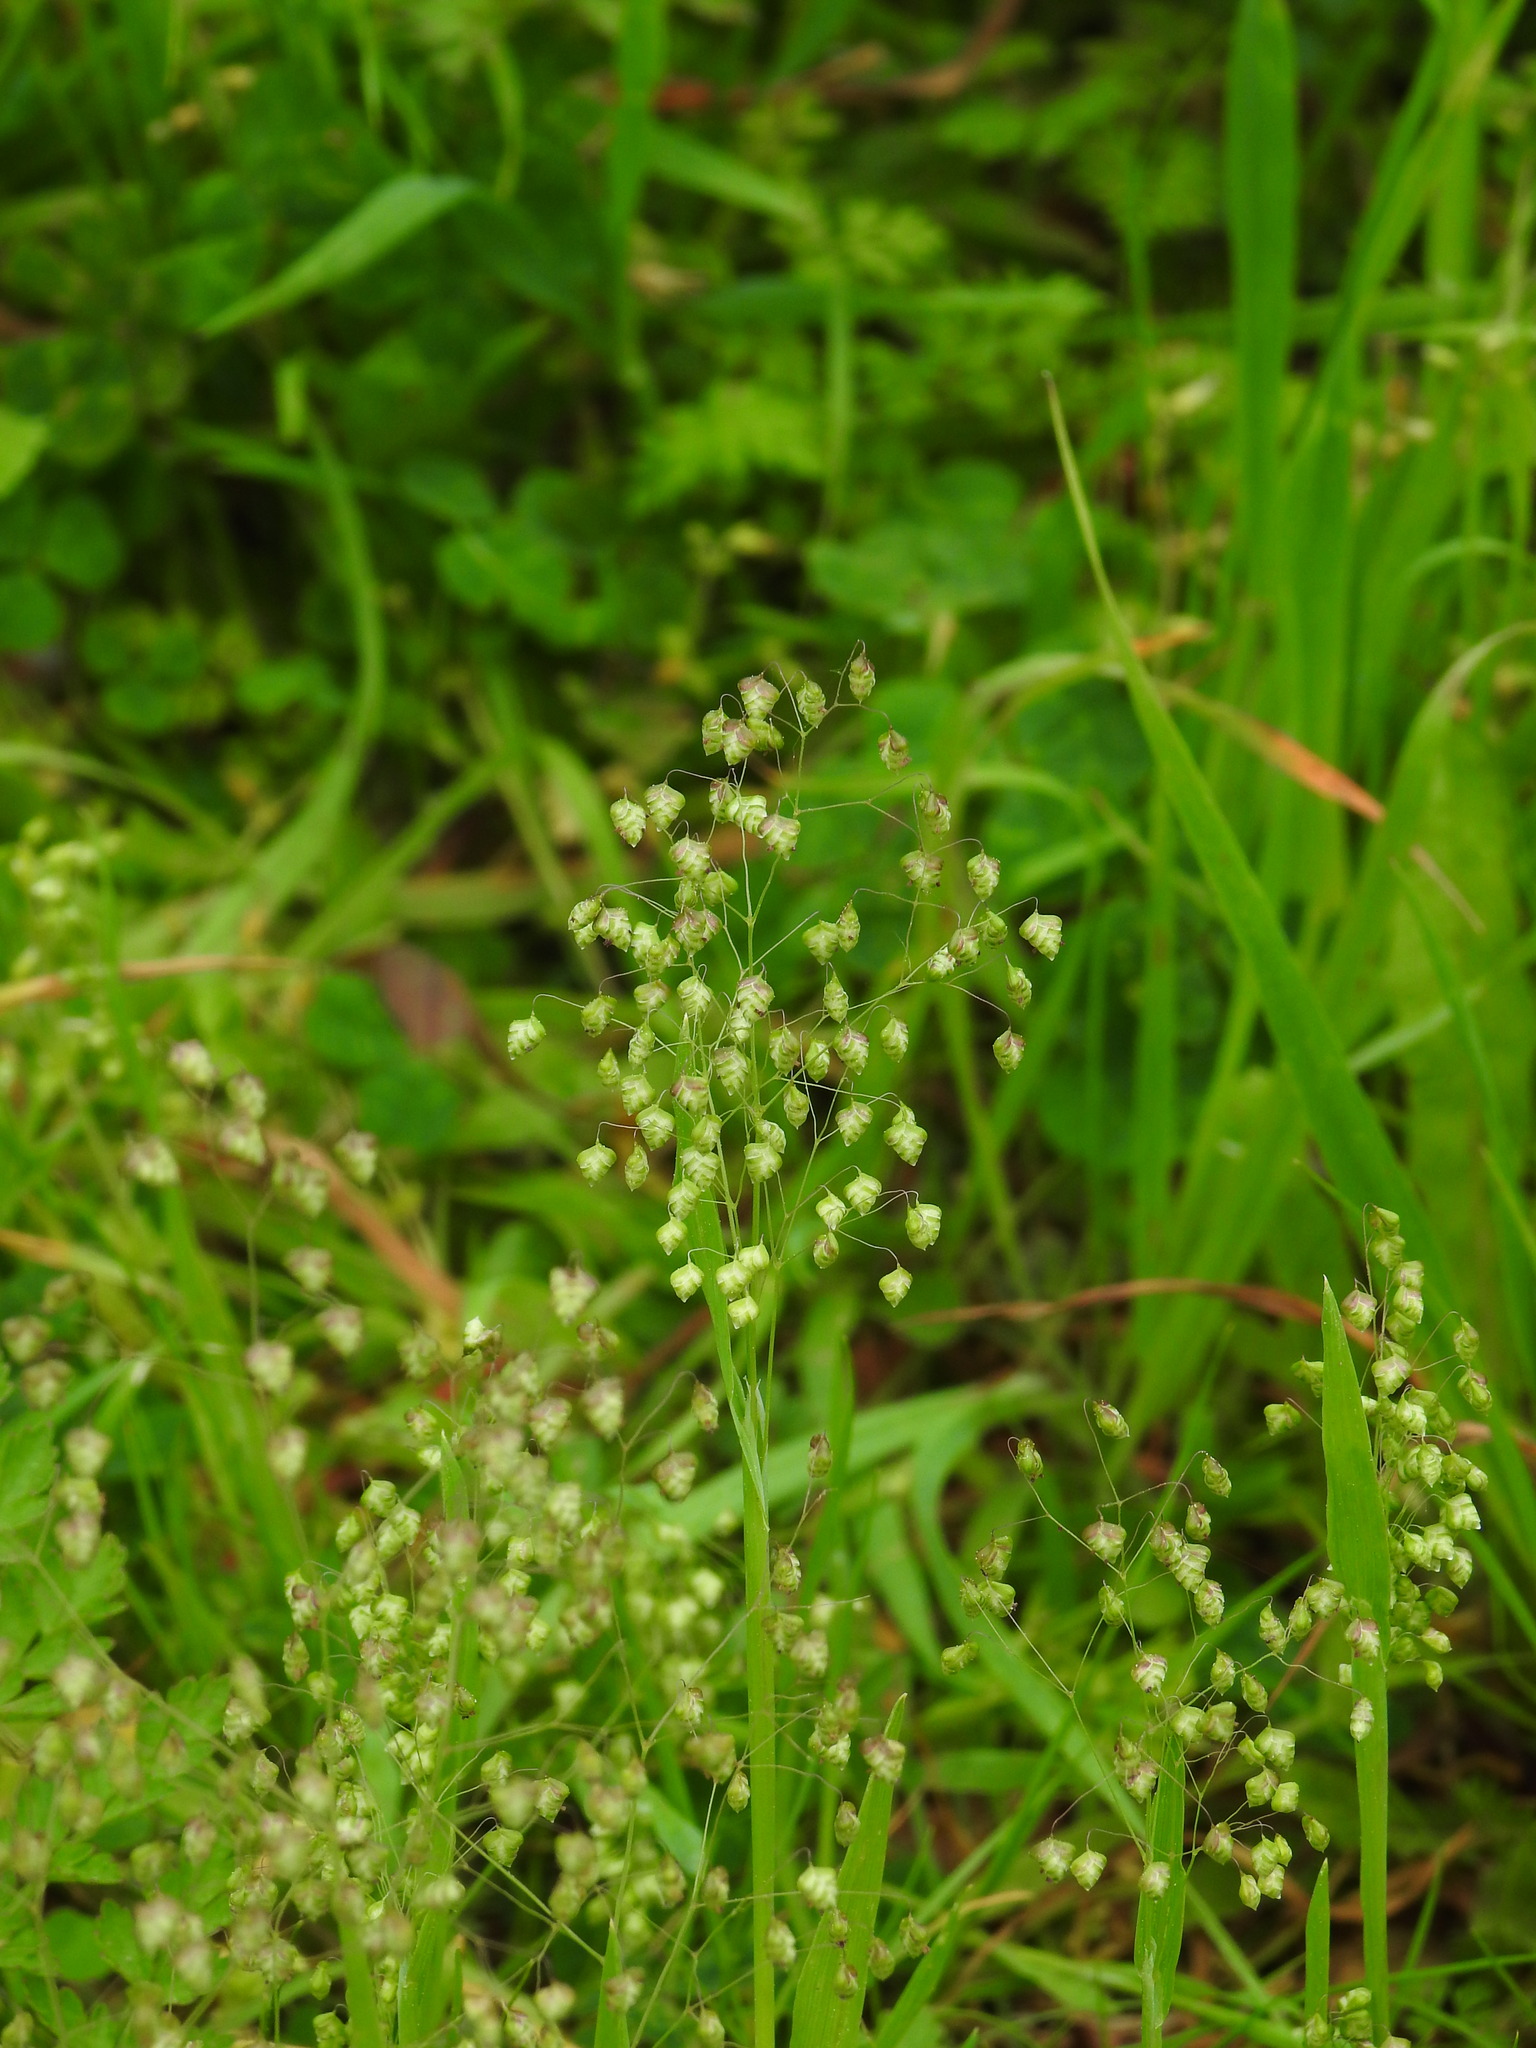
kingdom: Plantae
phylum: Tracheophyta
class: Liliopsida
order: Poales
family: Poaceae
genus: Briza
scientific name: Briza minor
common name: Lesser quaking-grass
